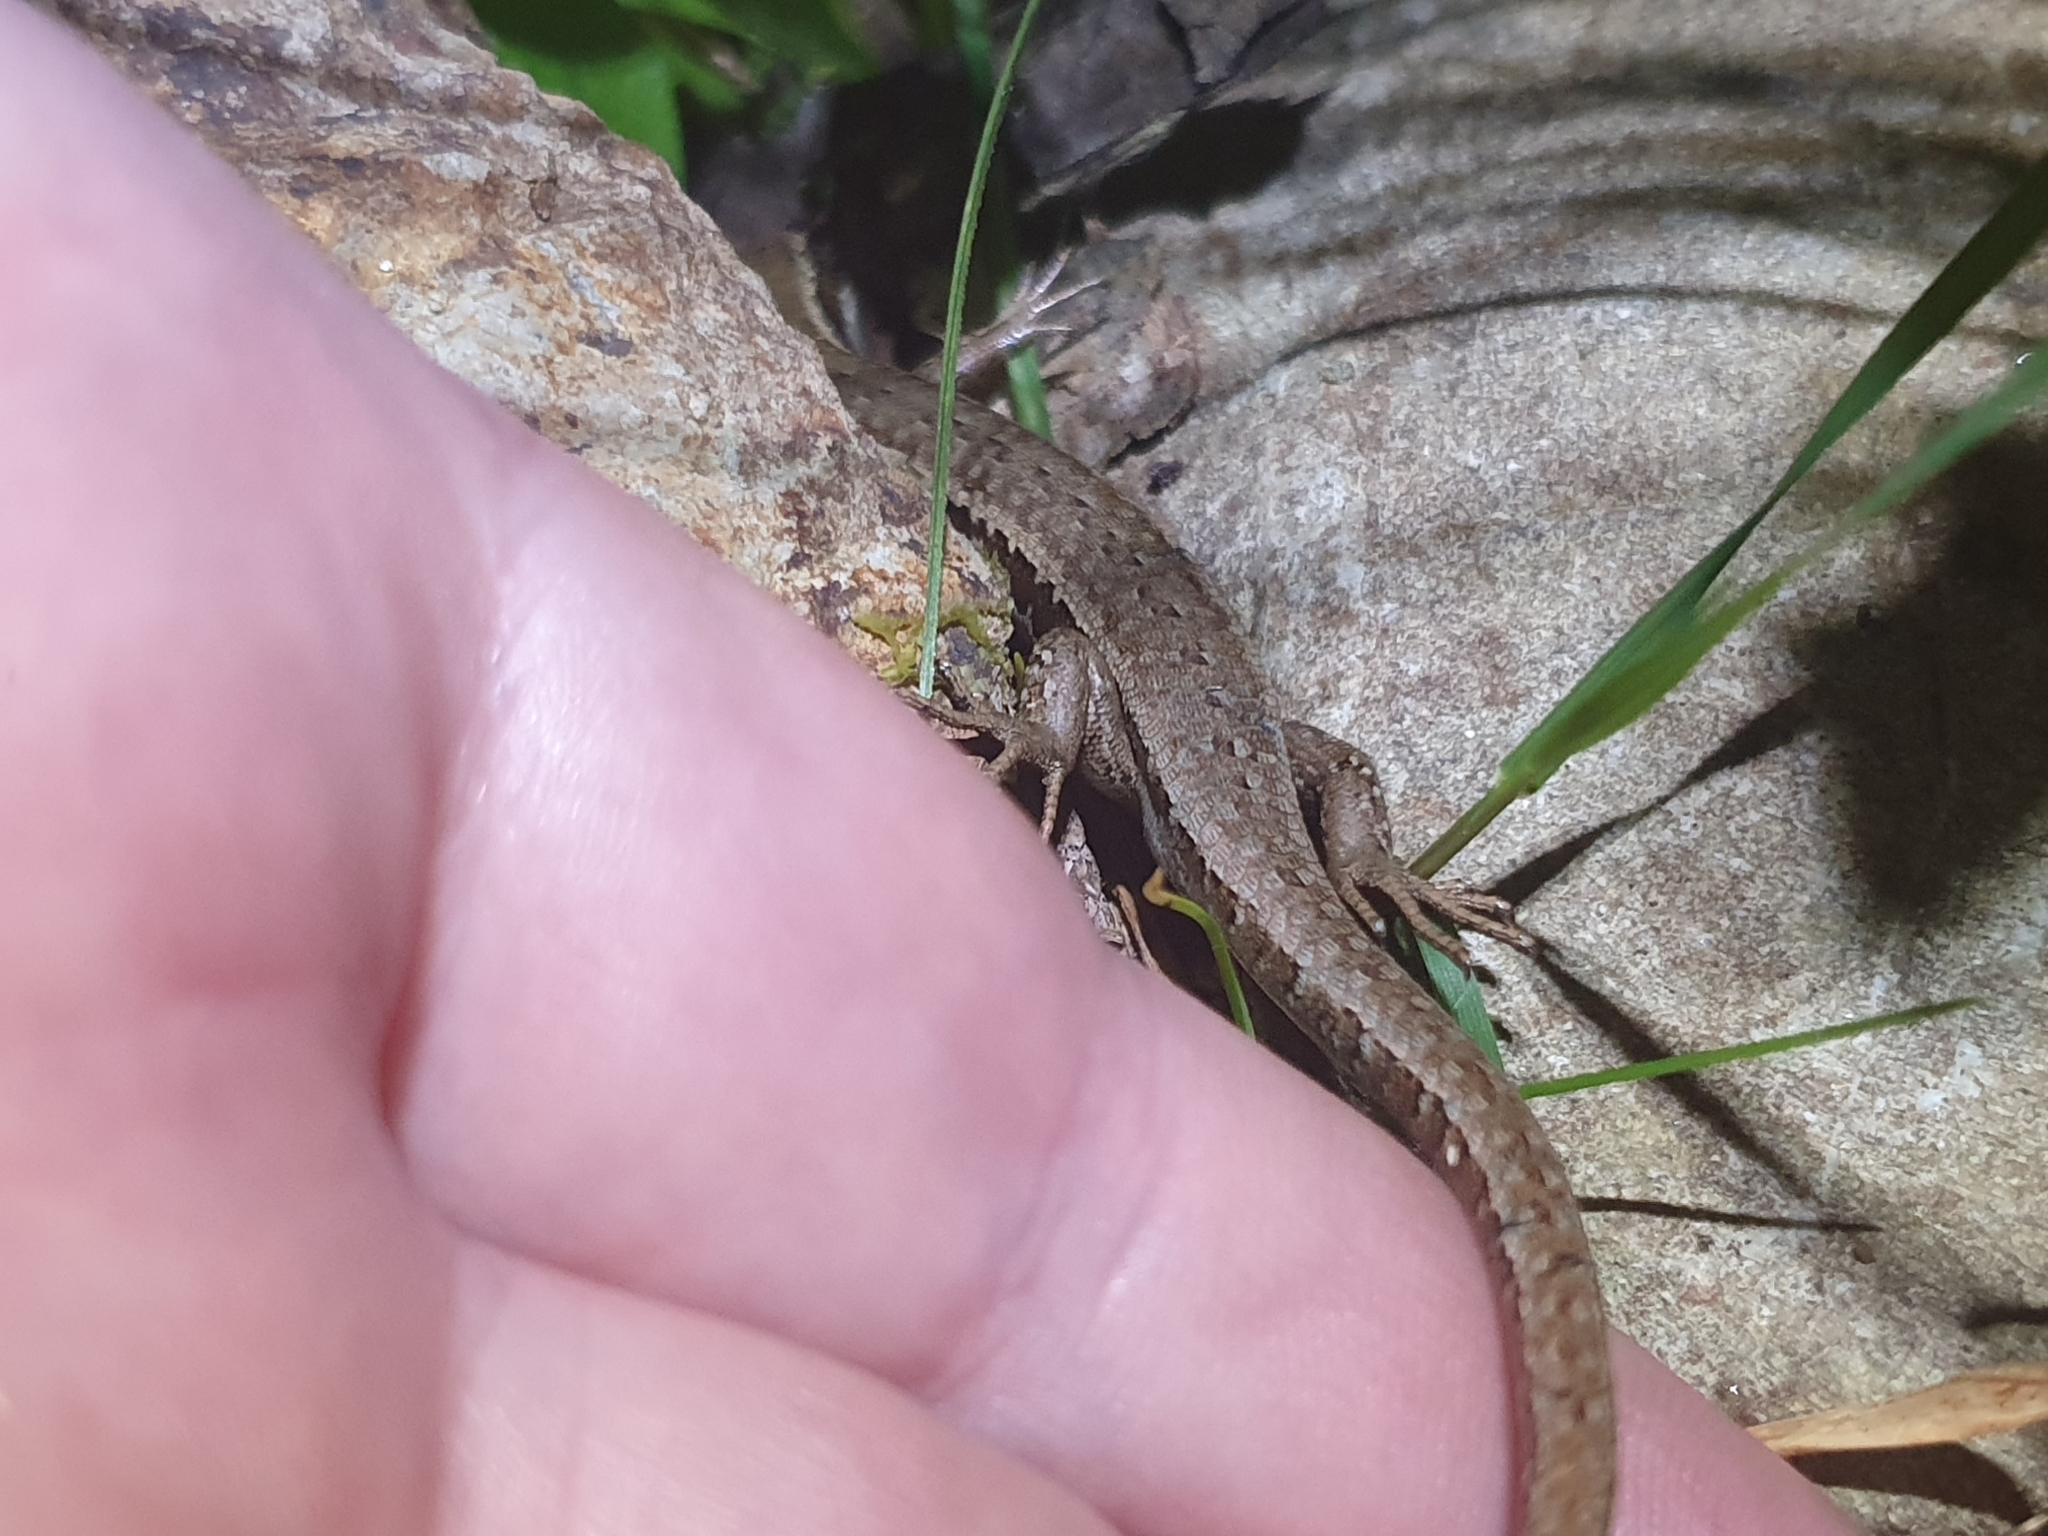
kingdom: Animalia
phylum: Chordata
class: Squamata
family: Scincidae
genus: Oligosoma
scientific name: Oligosoma polychroma
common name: Common new zealand skink
